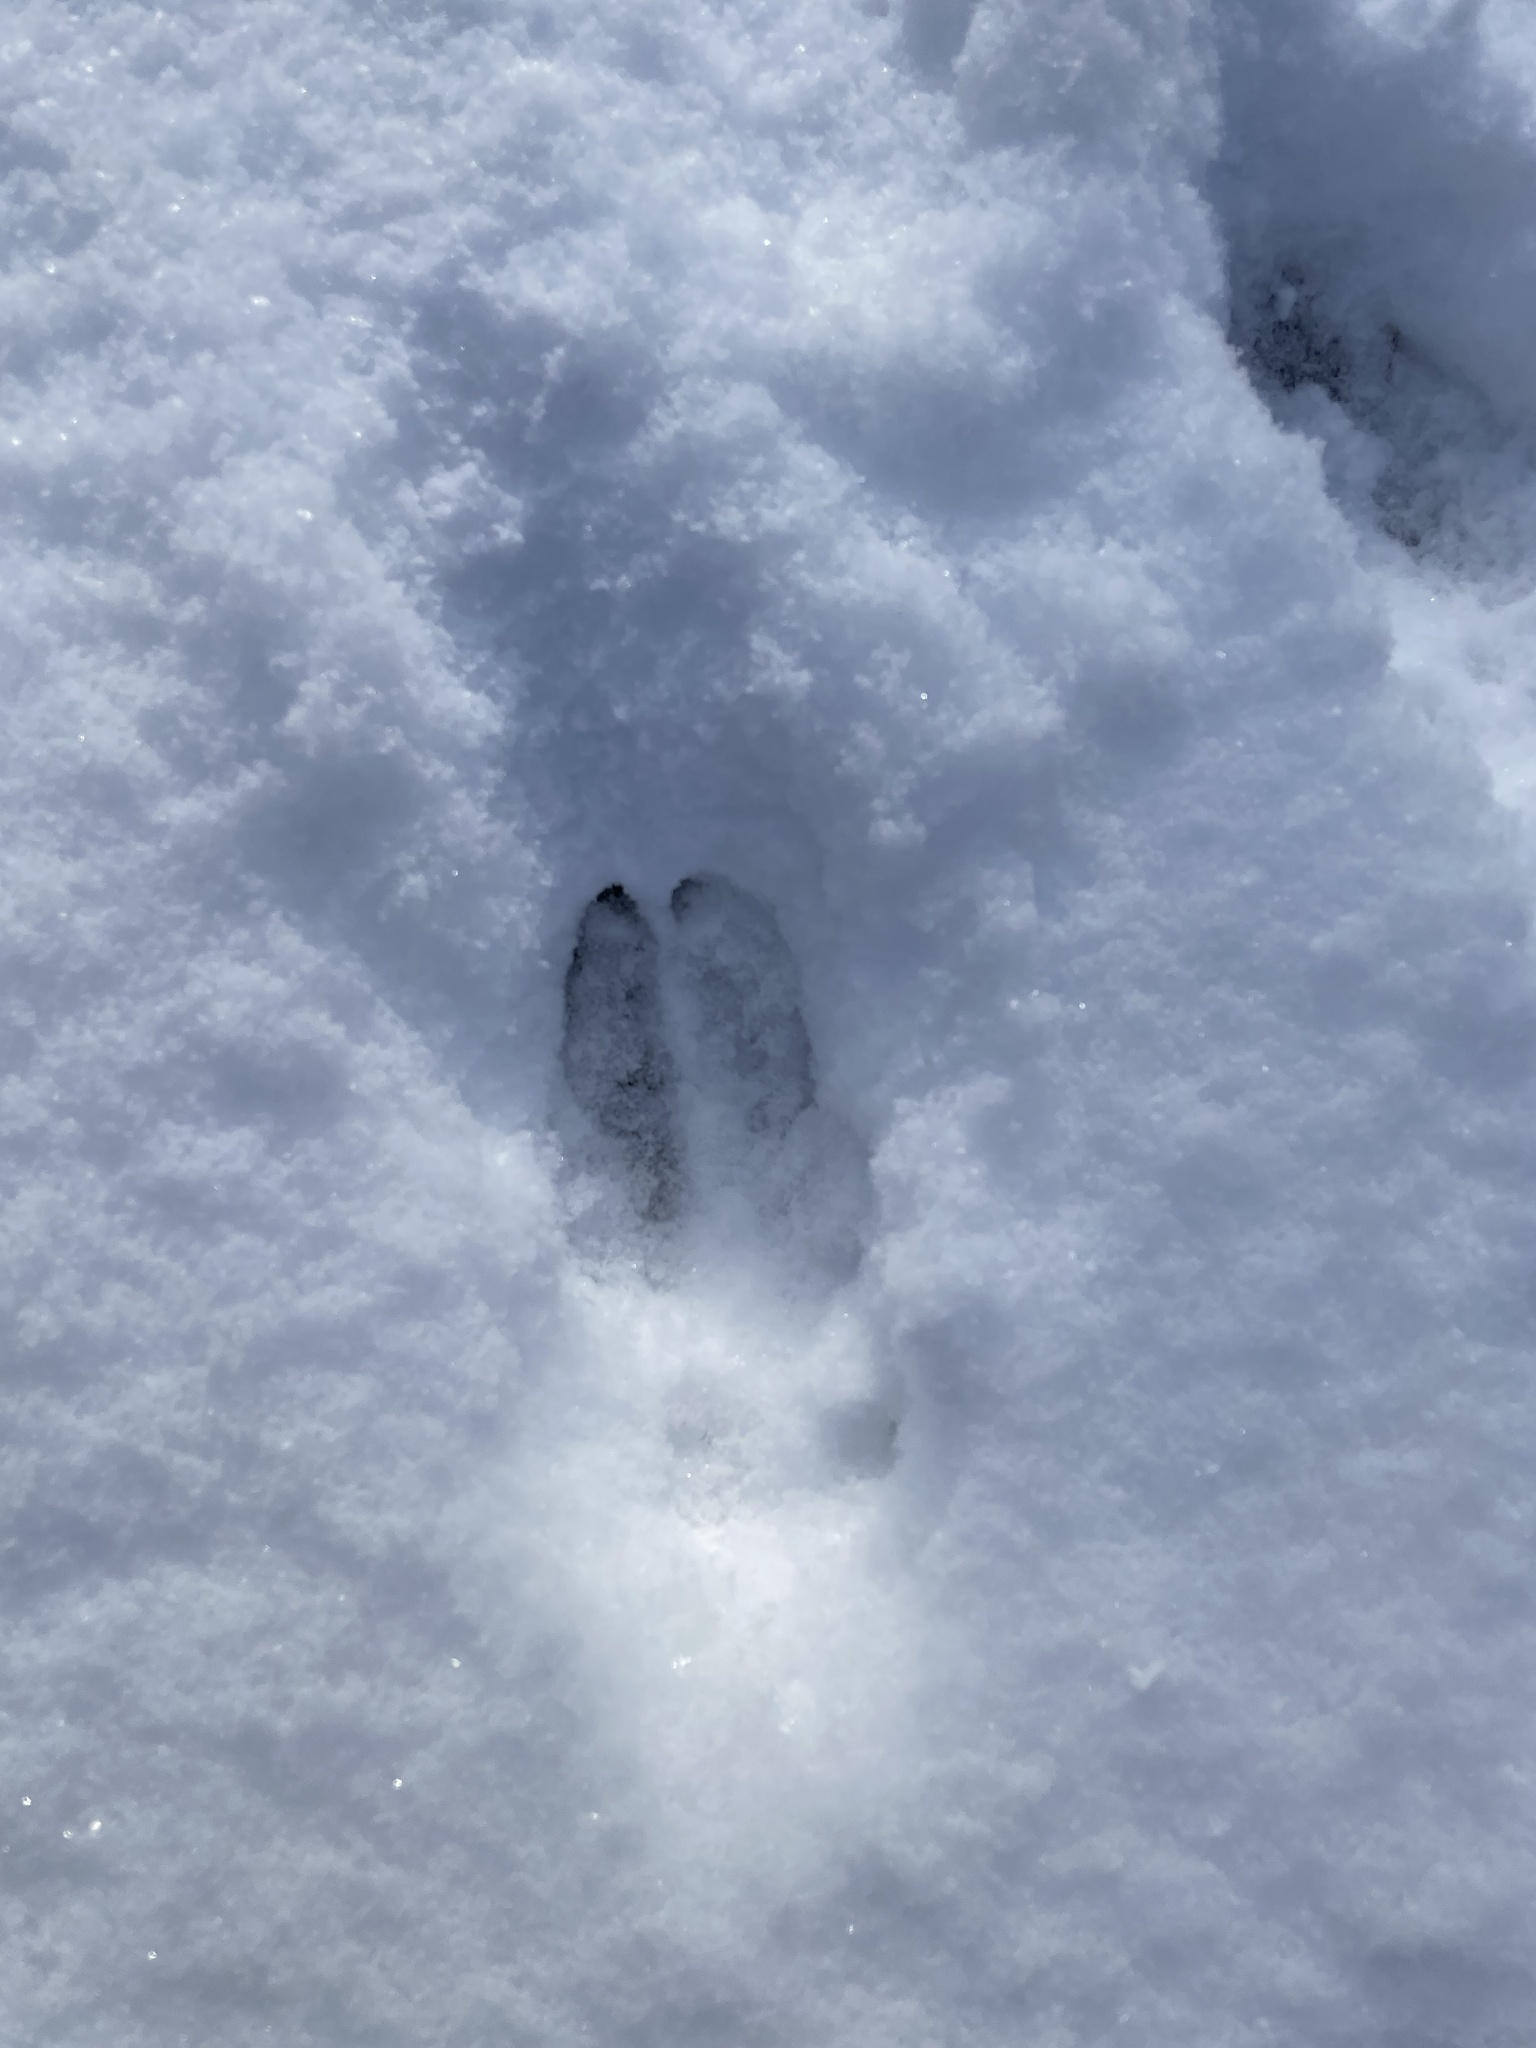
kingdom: Animalia
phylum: Chordata
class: Mammalia
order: Artiodactyla
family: Cervidae
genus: Odocoileus
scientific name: Odocoileus virginianus
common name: White-tailed deer
